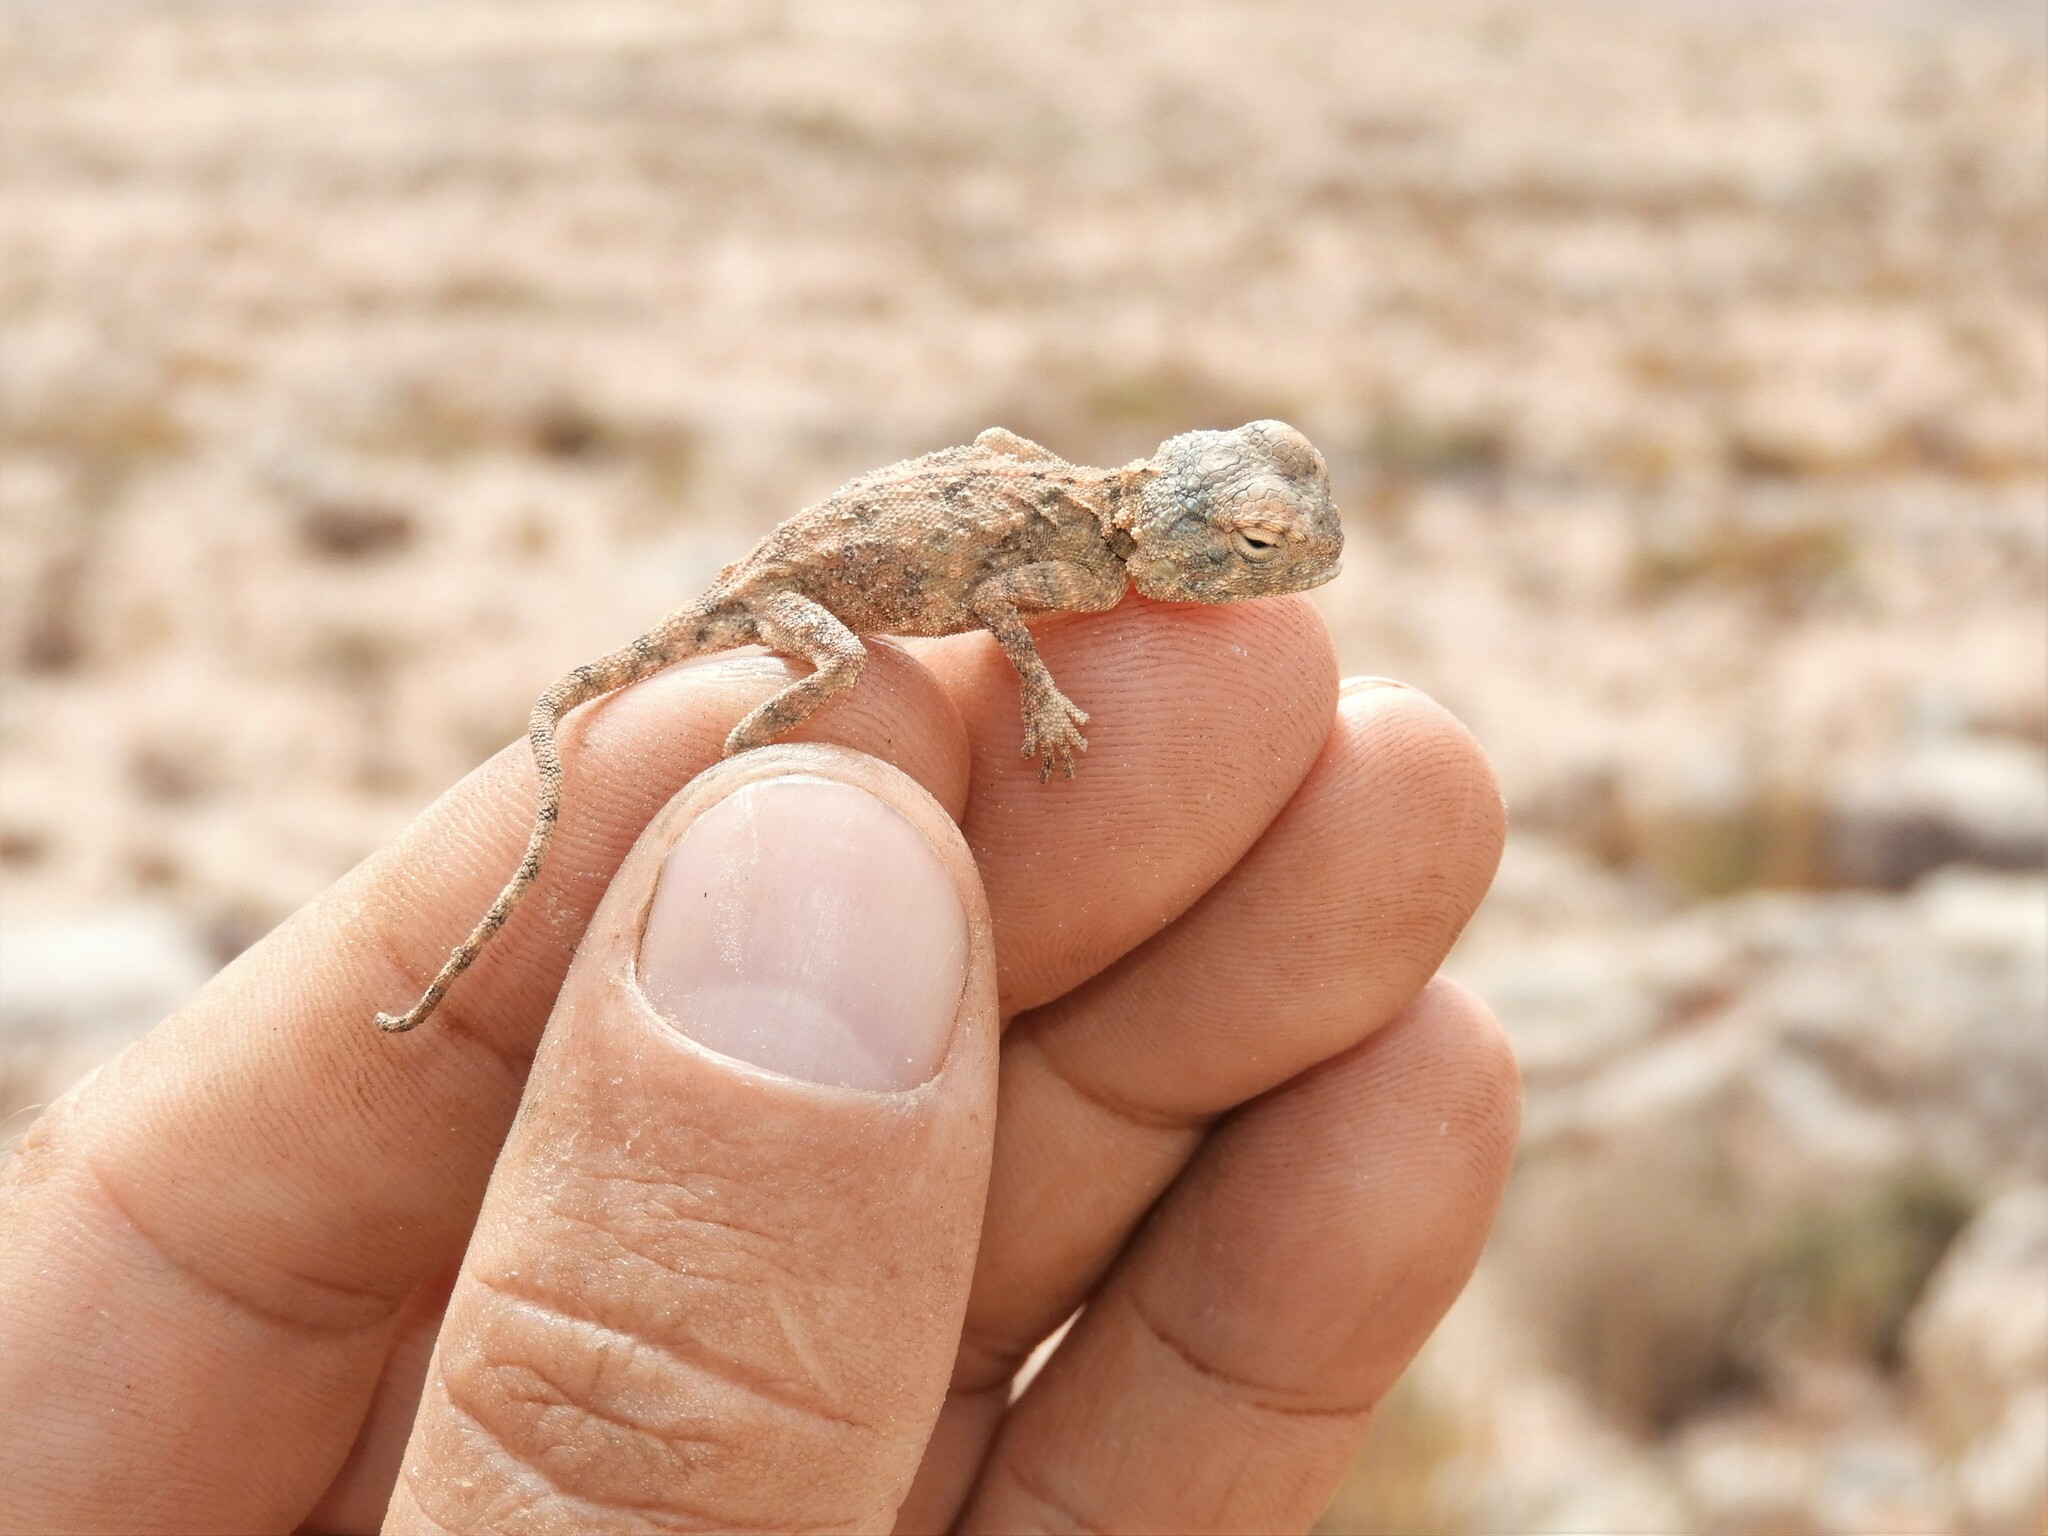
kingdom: Animalia
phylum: Chordata
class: Squamata
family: Agamidae
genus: Agama
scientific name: Agama anchietae
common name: Anchieta's agama
